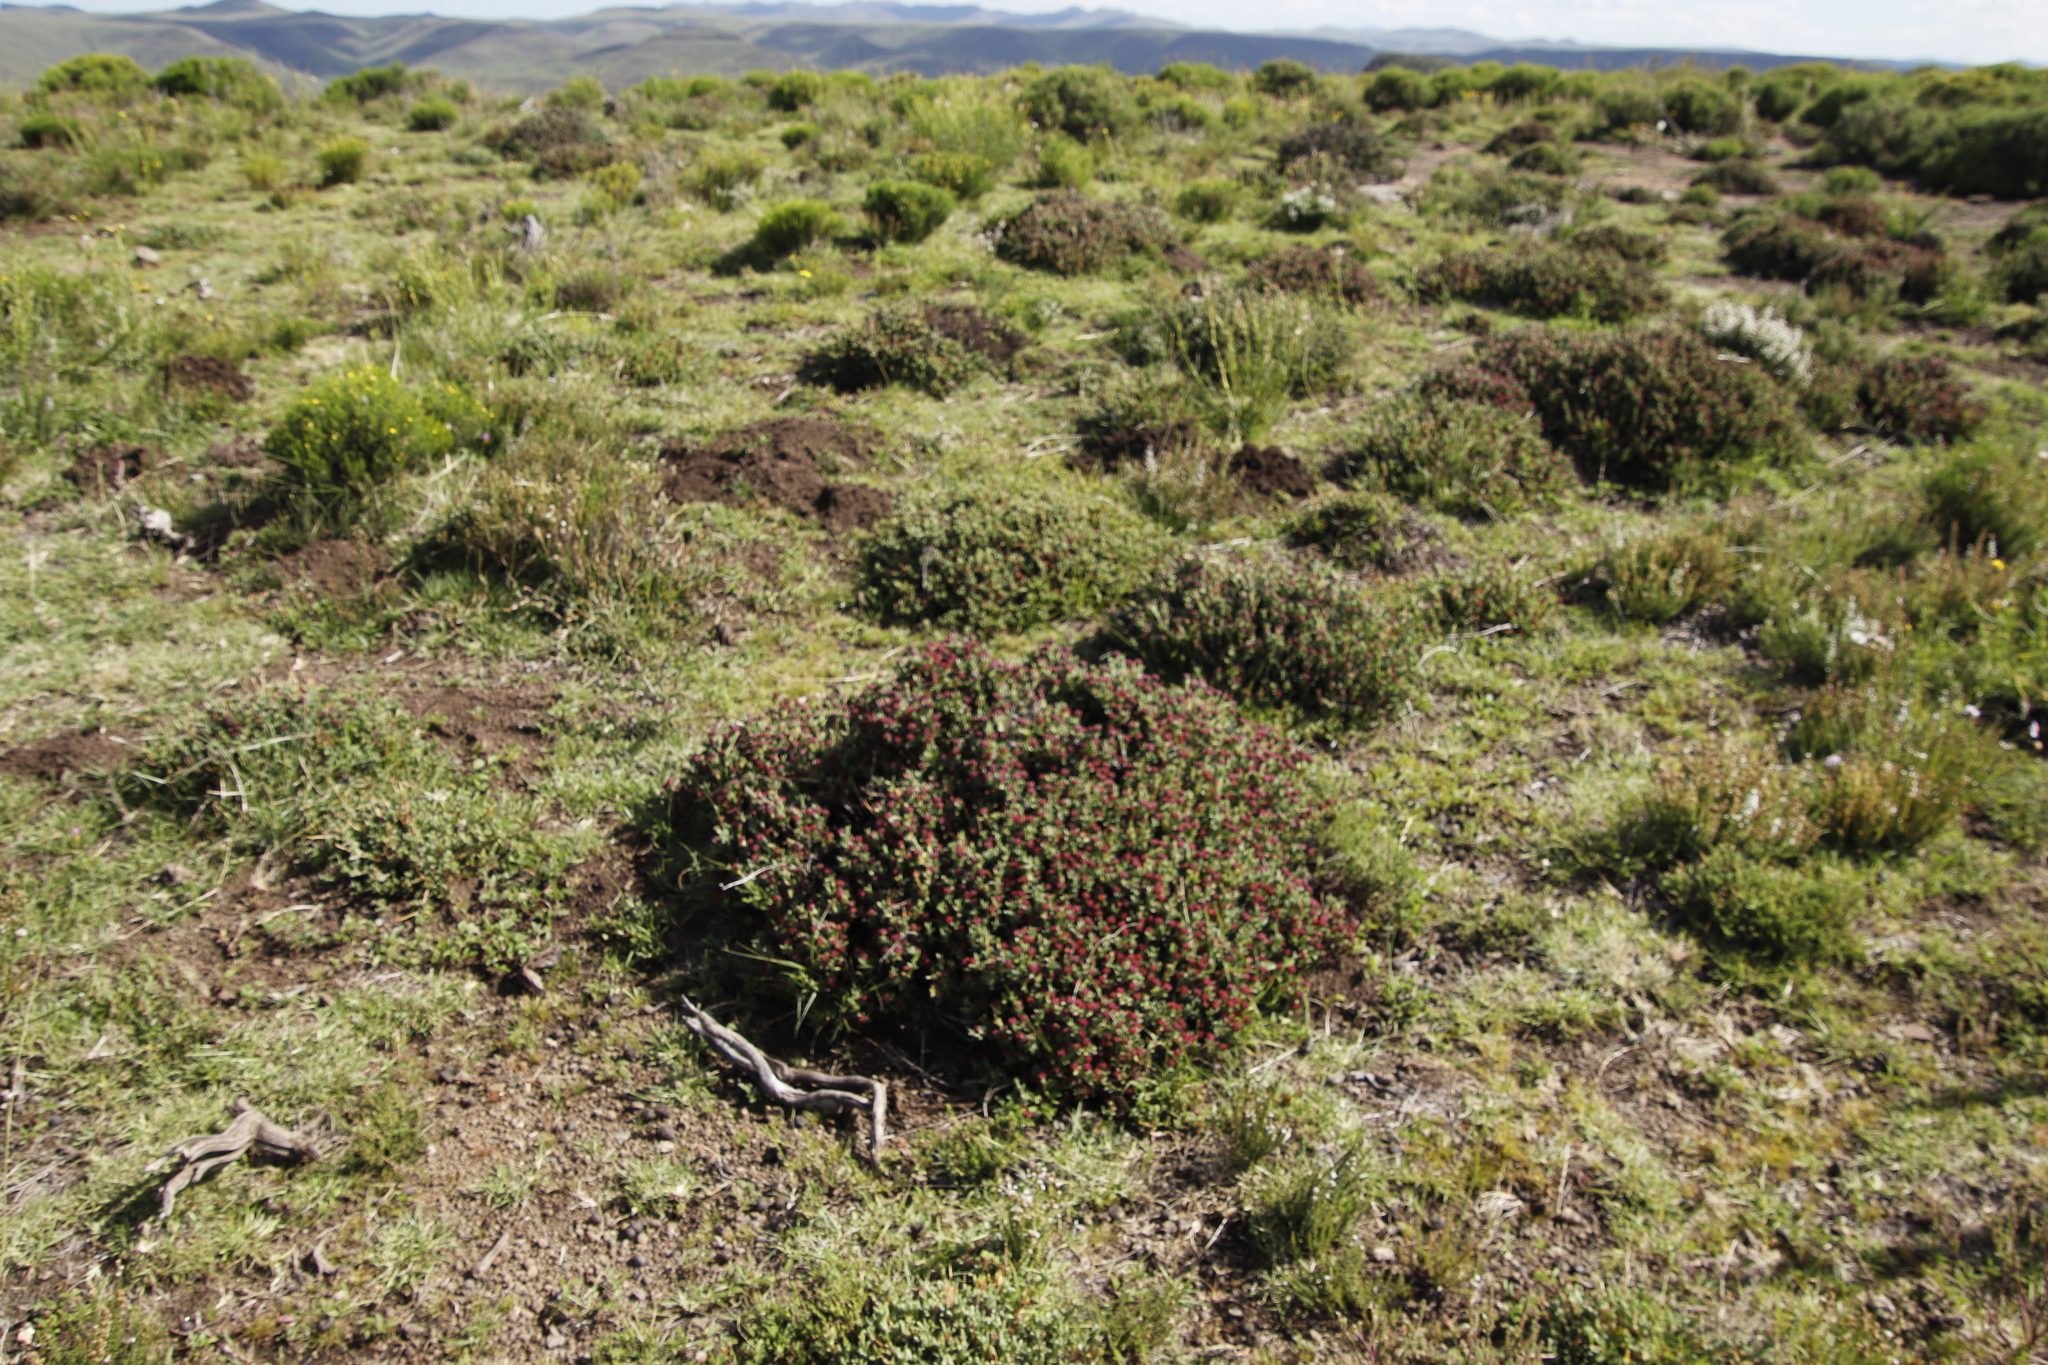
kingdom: Plantae
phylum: Tracheophyta
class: Magnoliopsida
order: Caryophyllales
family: Aizoaceae
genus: Ruschia
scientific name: Ruschia putterillii
